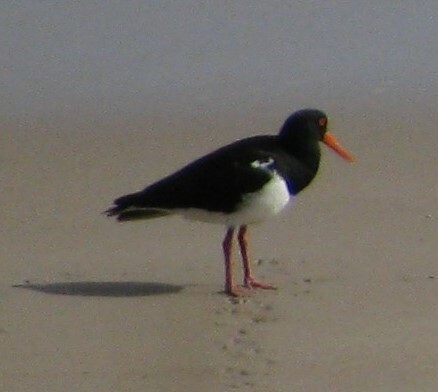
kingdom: Animalia
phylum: Chordata
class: Aves
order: Charadriiformes
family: Haematopodidae
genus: Haematopus
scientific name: Haematopus longirostris
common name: Pied oystercatcher
